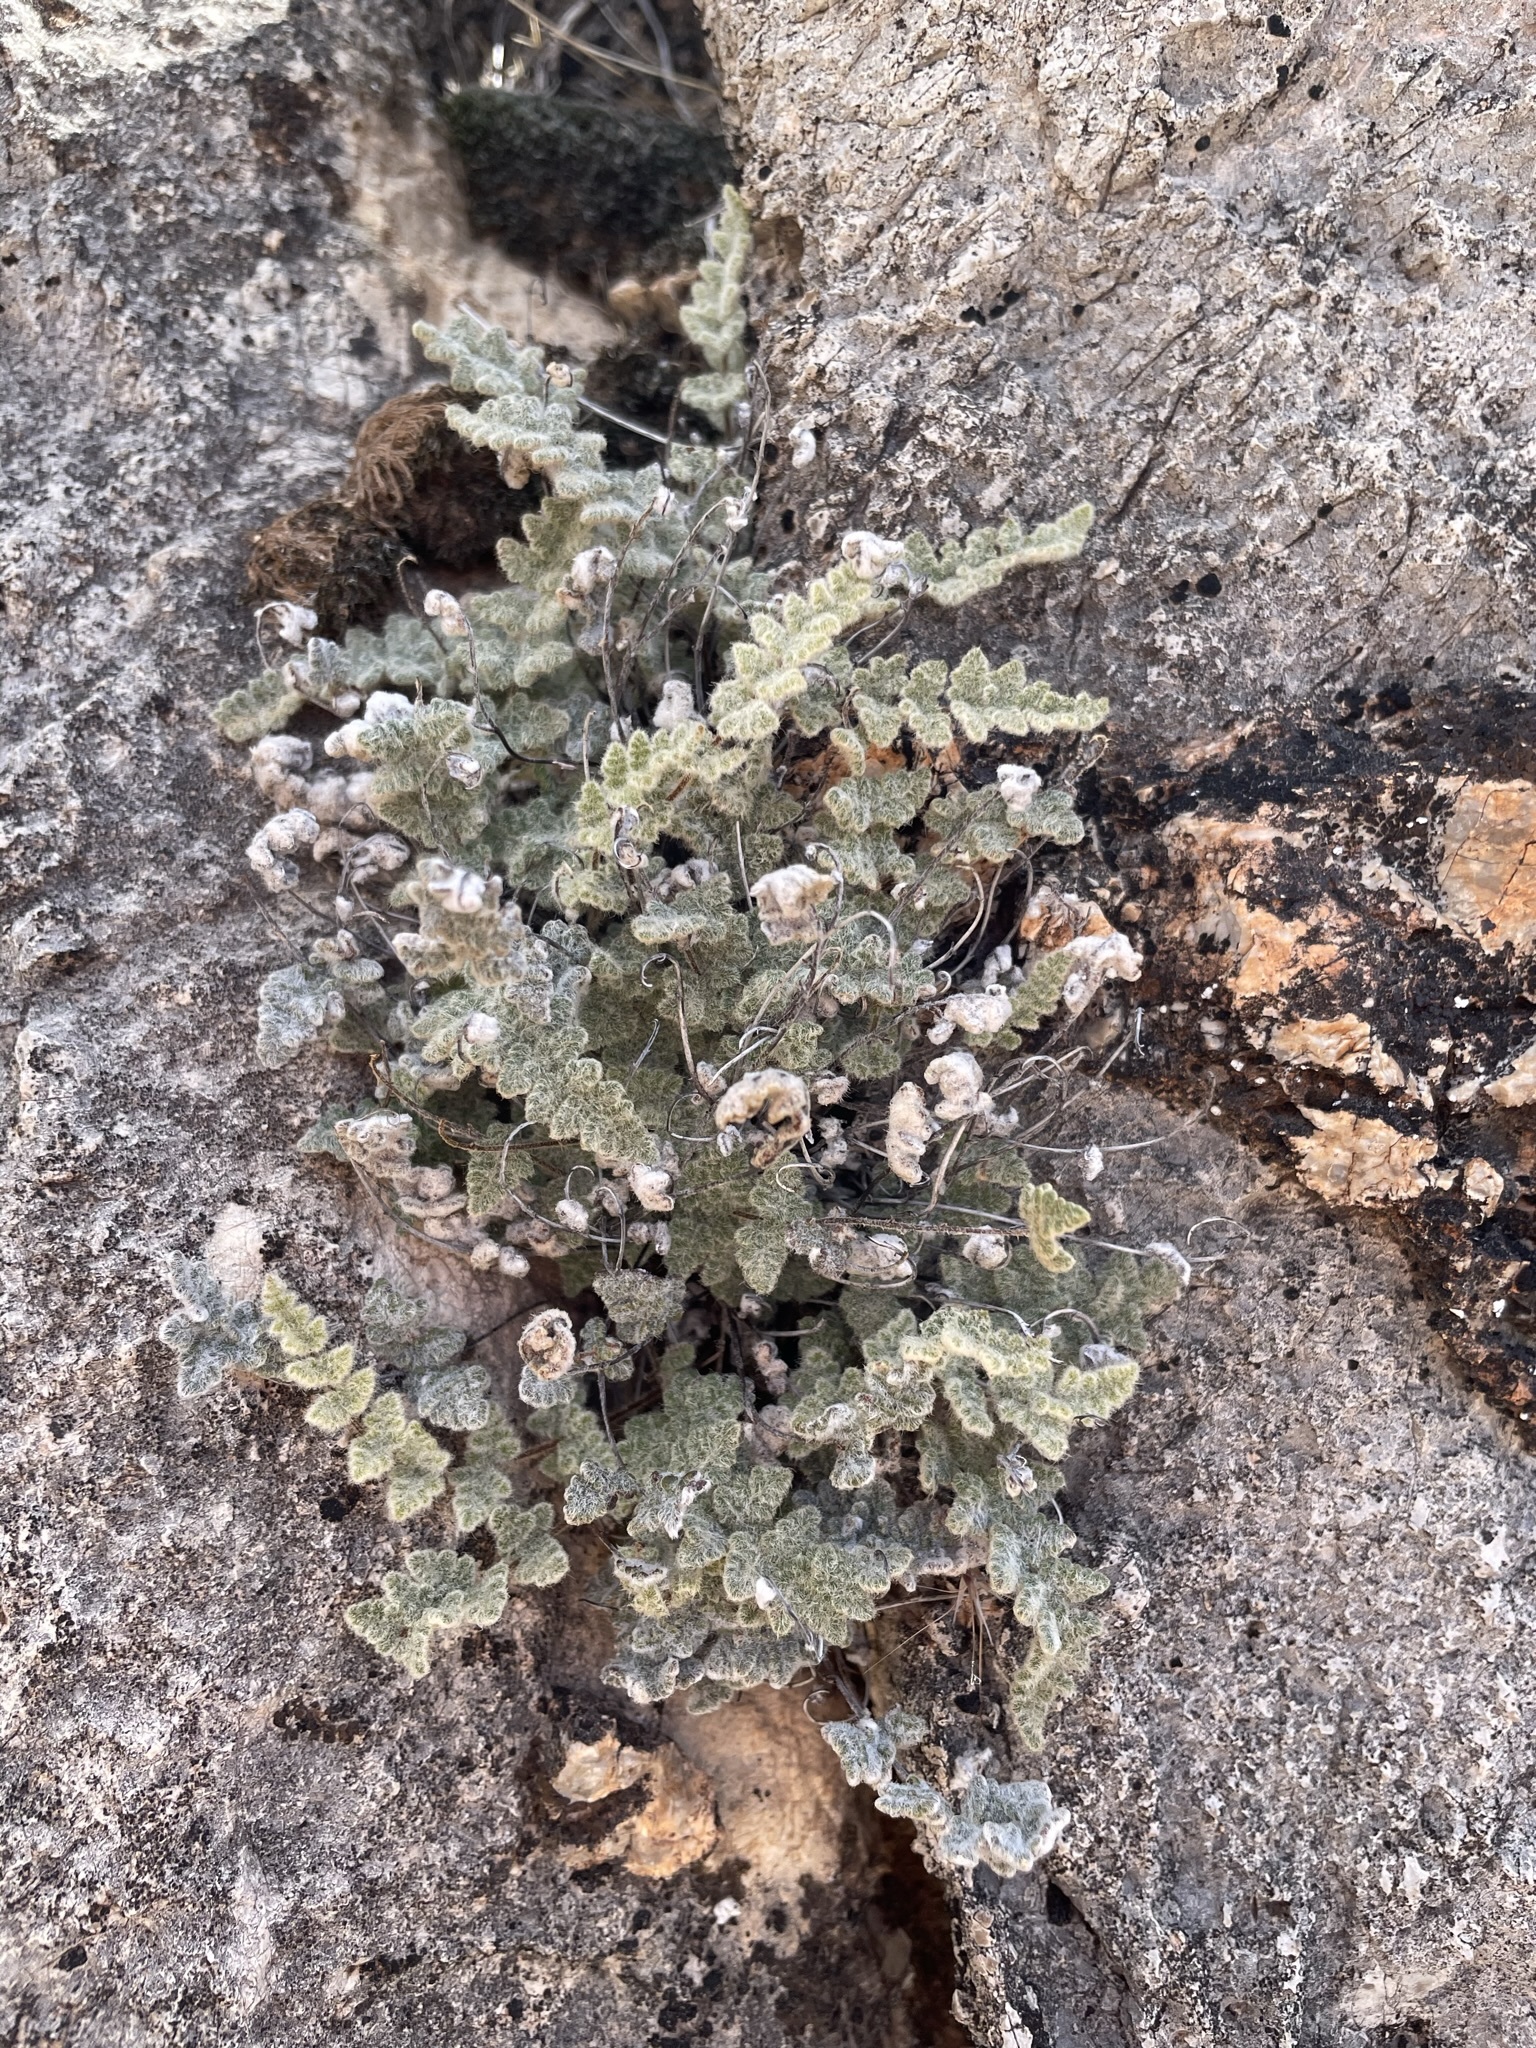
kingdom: Plantae
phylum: Tracheophyta
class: Polypodiopsida
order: Polypodiales
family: Pteridaceae
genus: Myriopteris
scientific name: Myriopteris parryi
